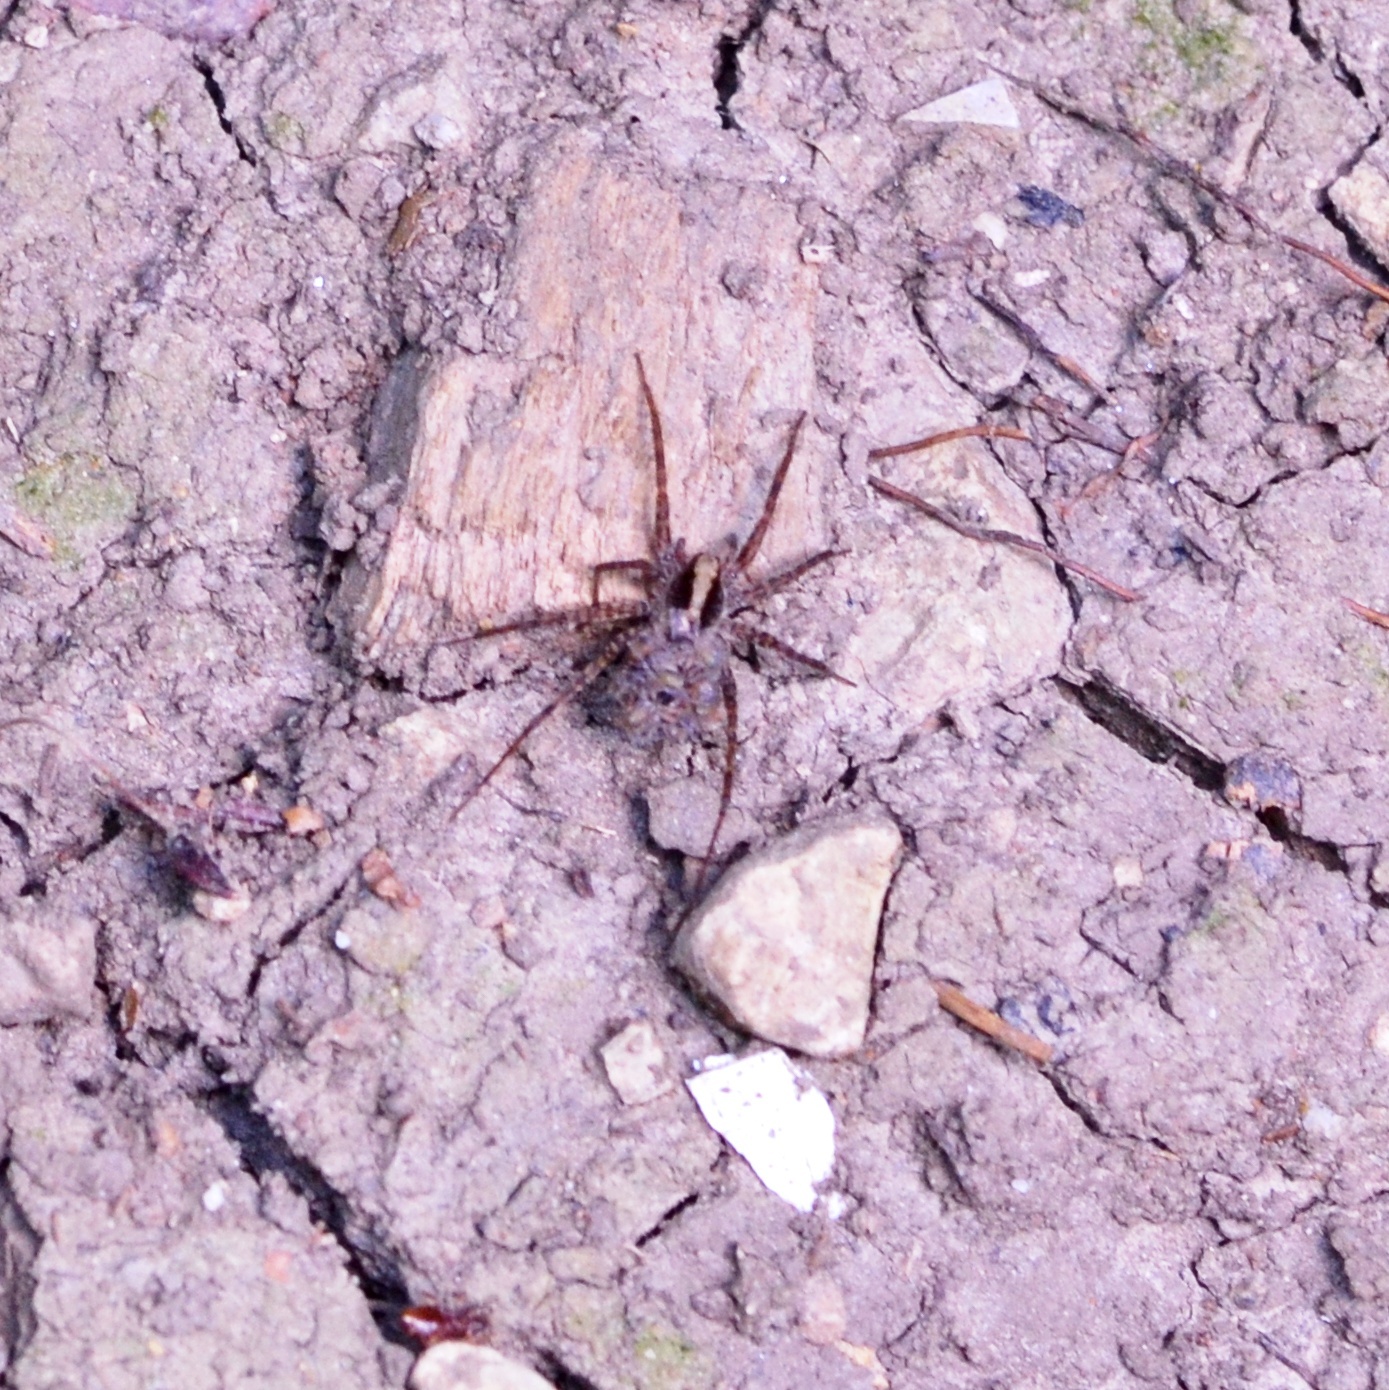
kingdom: Animalia
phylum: Arthropoda
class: Arachnida
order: Araneae
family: Lycosidae
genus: Pardosa
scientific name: Pardosa
